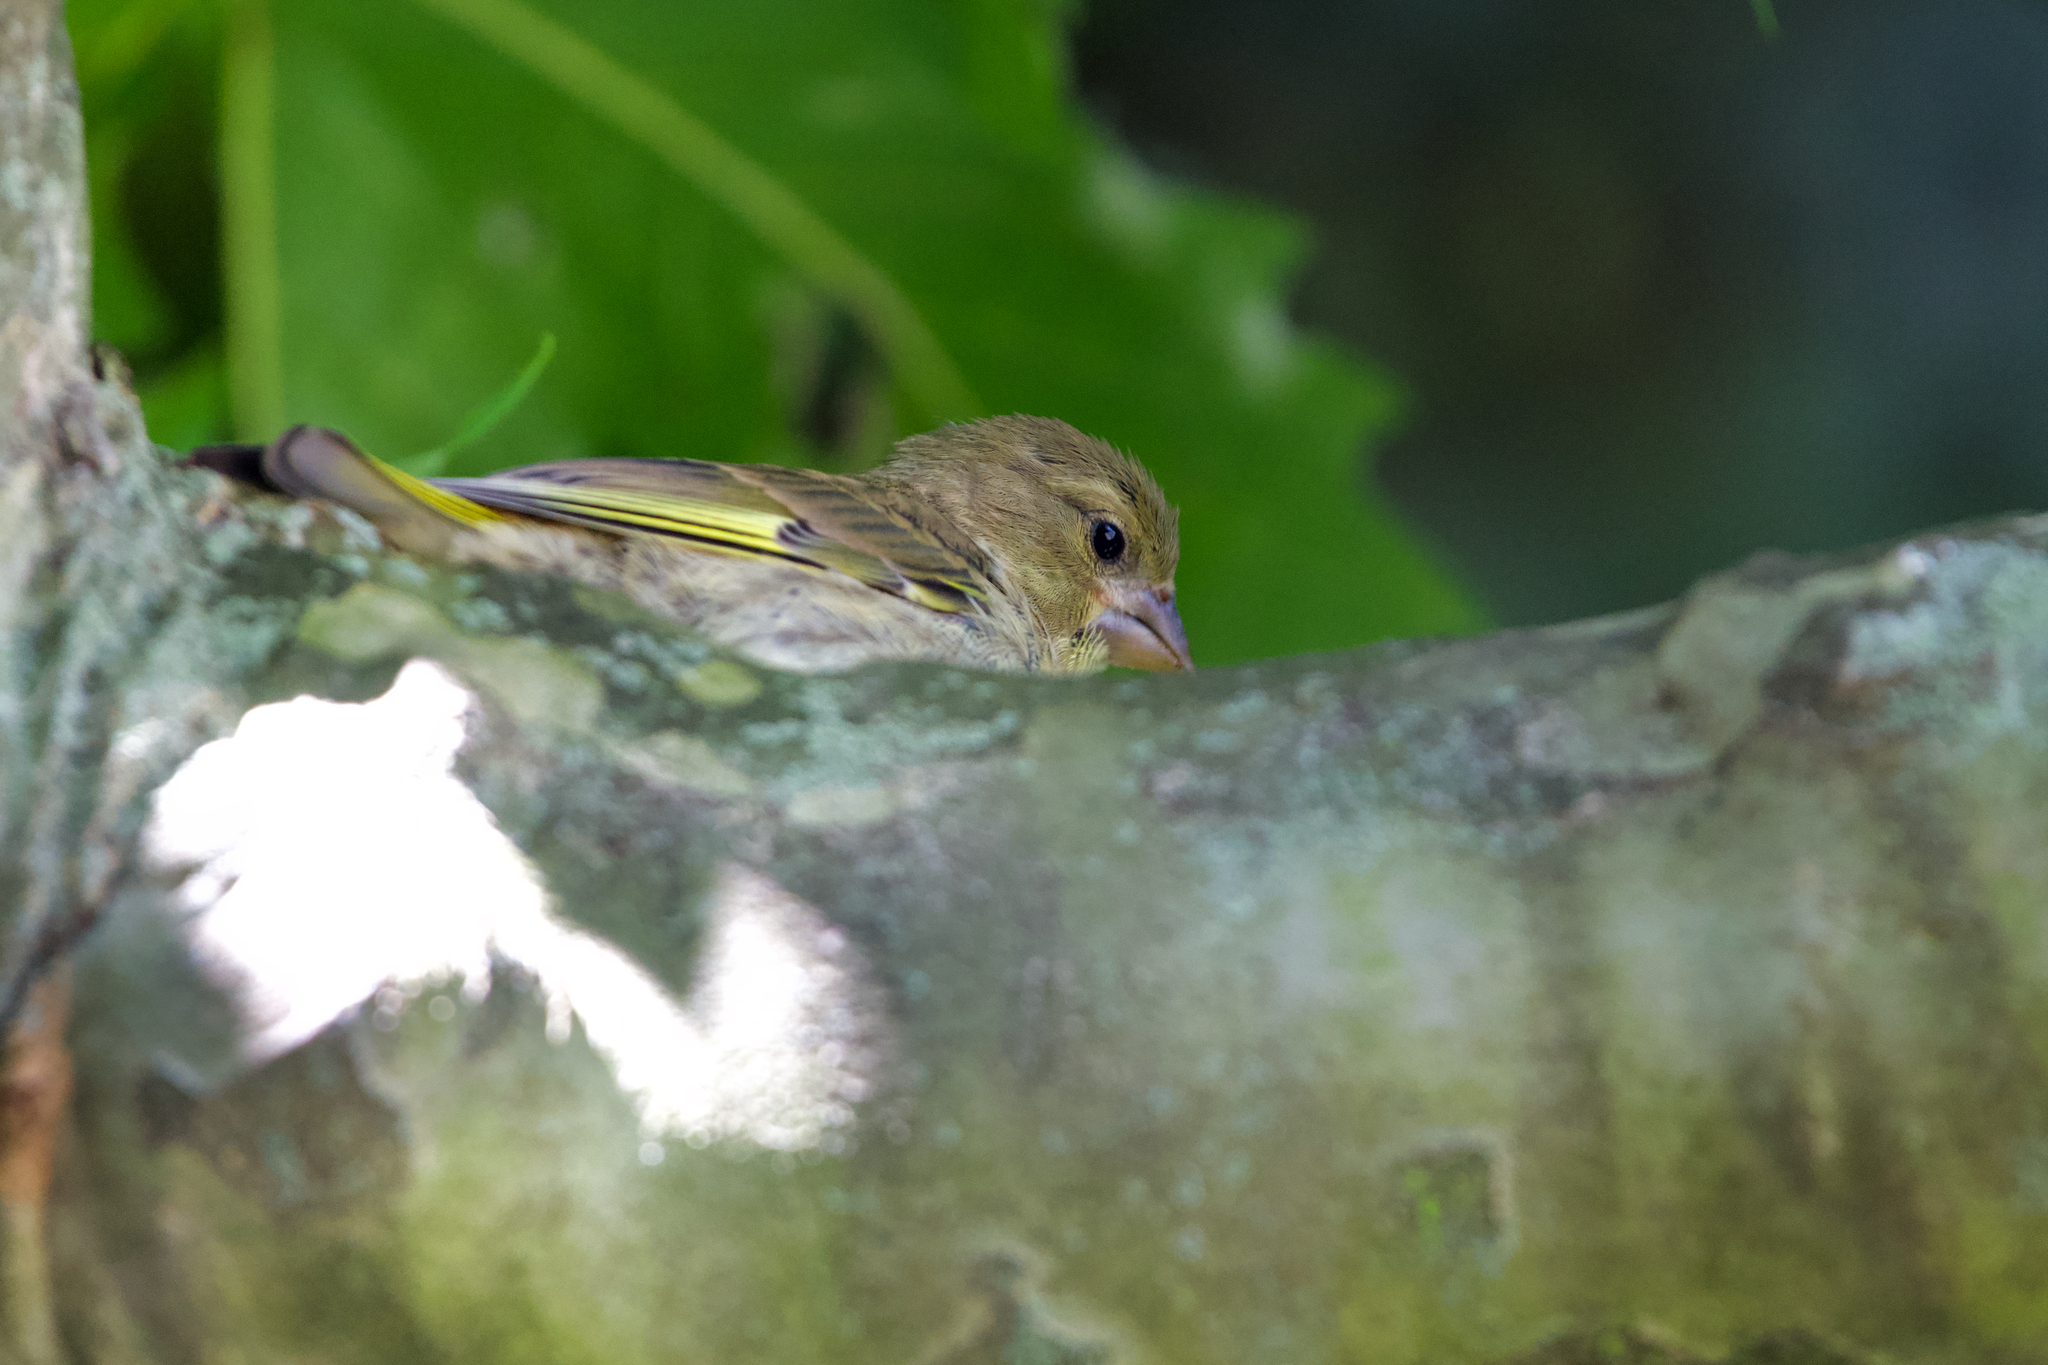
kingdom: Plantae
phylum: Tracheophyta
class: Liliopsida
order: Poales
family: Poaceae
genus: Chloris
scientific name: Chloris chloris
